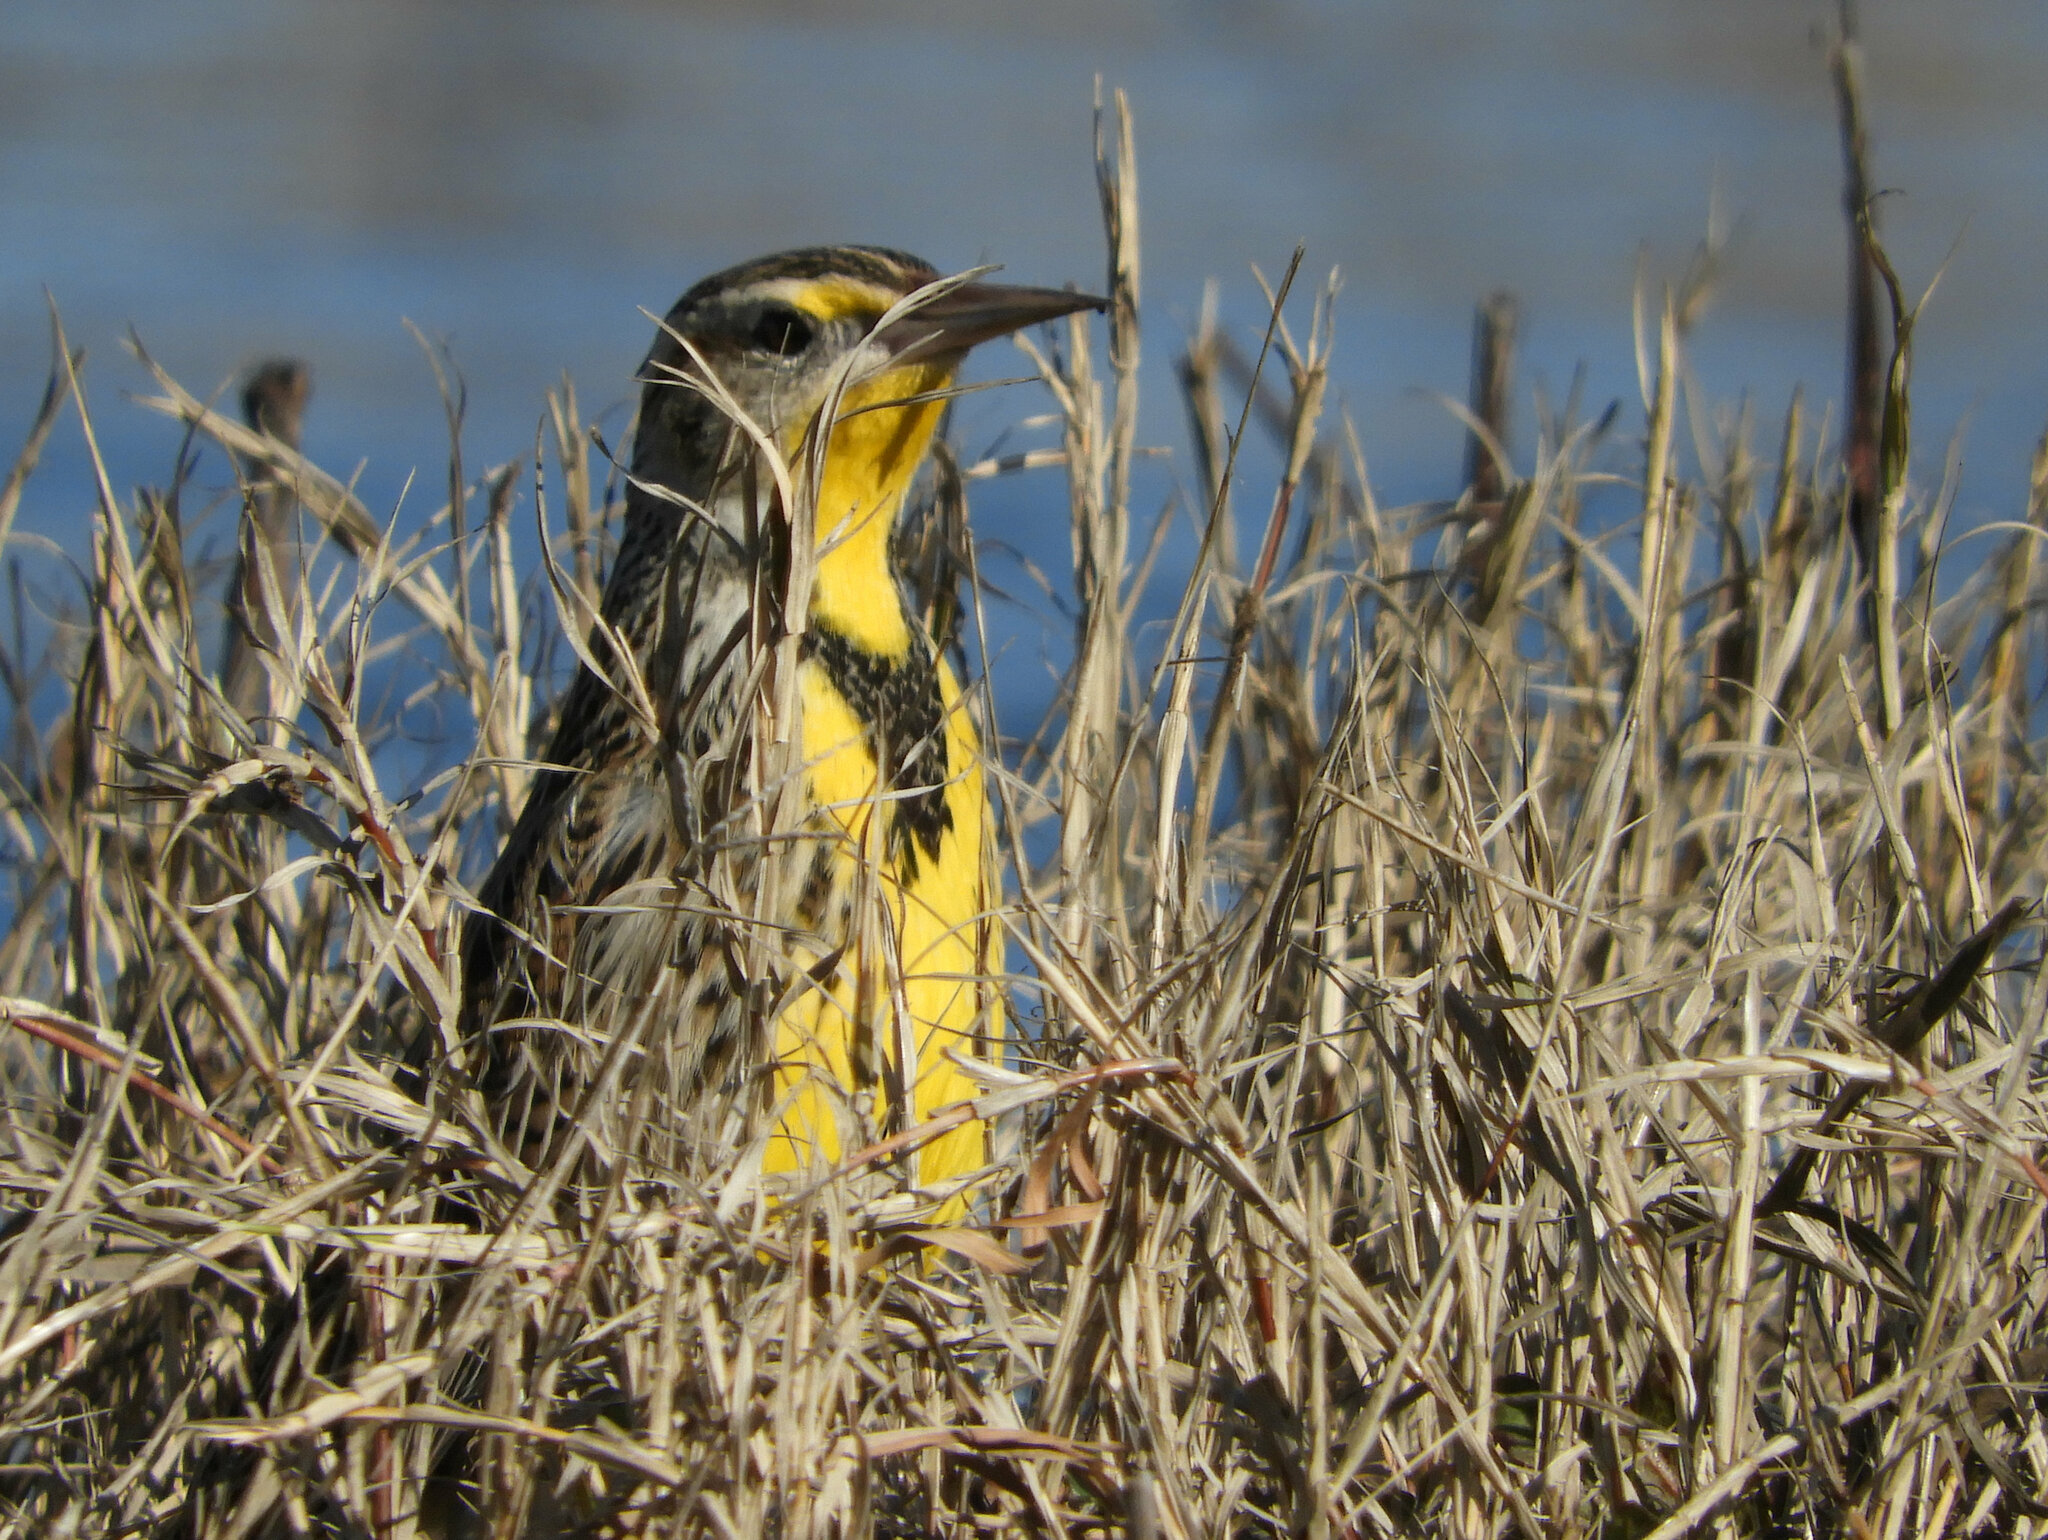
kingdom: Animalia
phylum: Chordata
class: Aves
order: Passeriformes
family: Icteridae
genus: Sturnella
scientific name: Sturnella neglecta
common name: Western meadowlark
